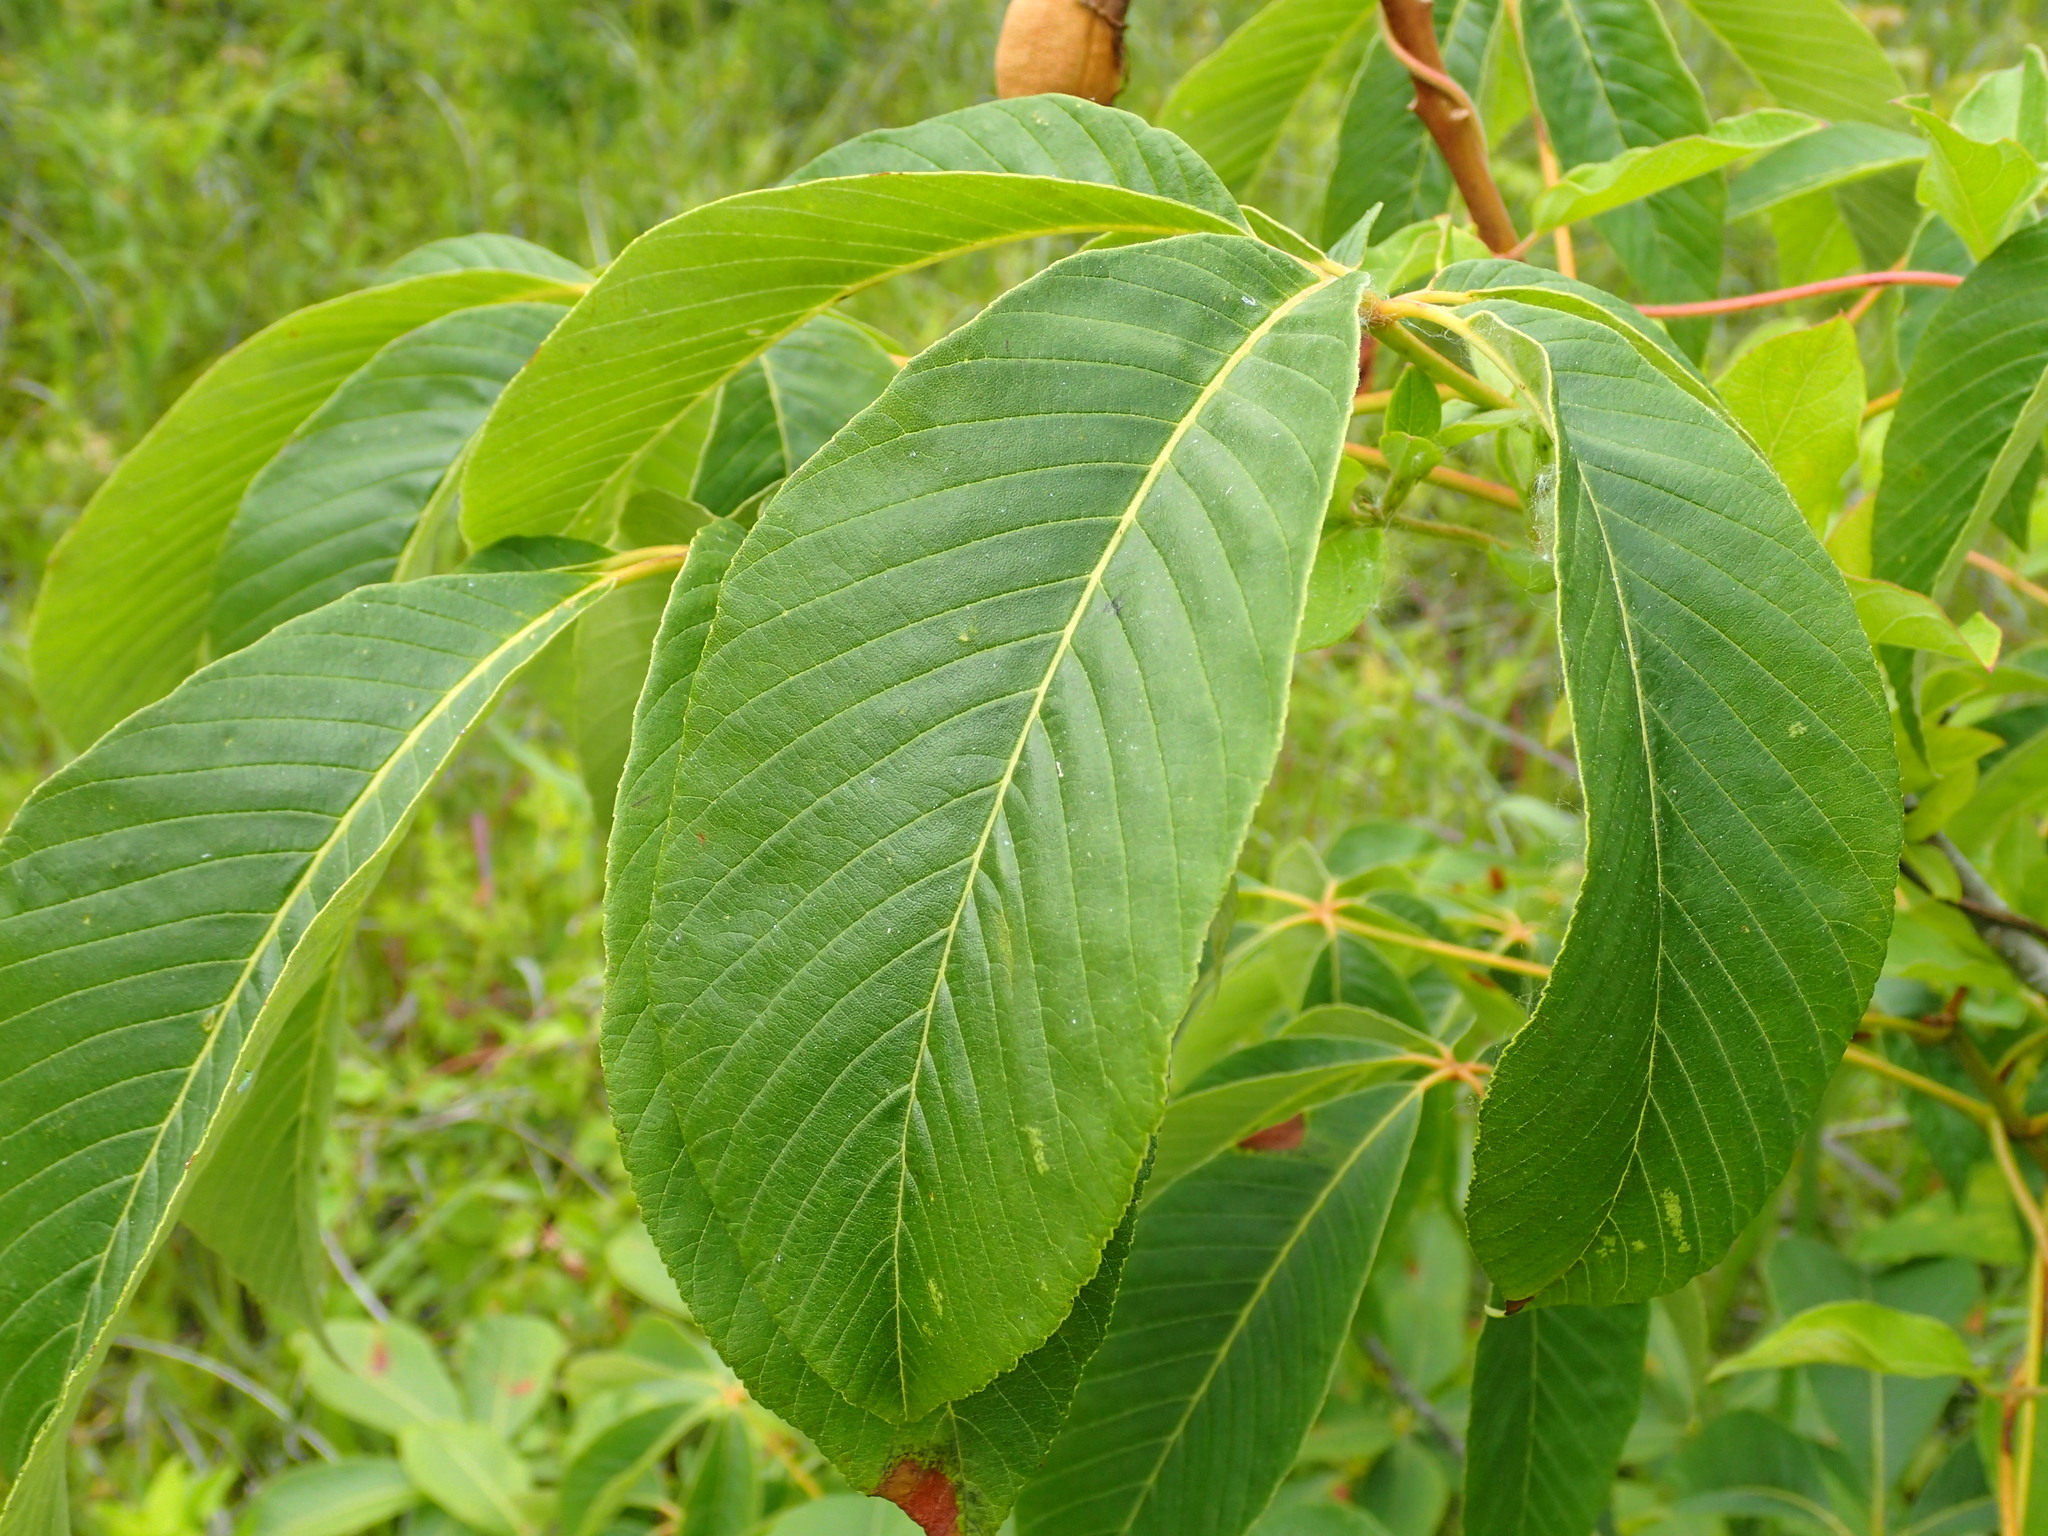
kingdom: Plantae
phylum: Tracheophyta
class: Magnoliopsida
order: Sapindales
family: Sapindaceae
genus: Aesculus
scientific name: Aesculus pavia
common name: Red buckeye
